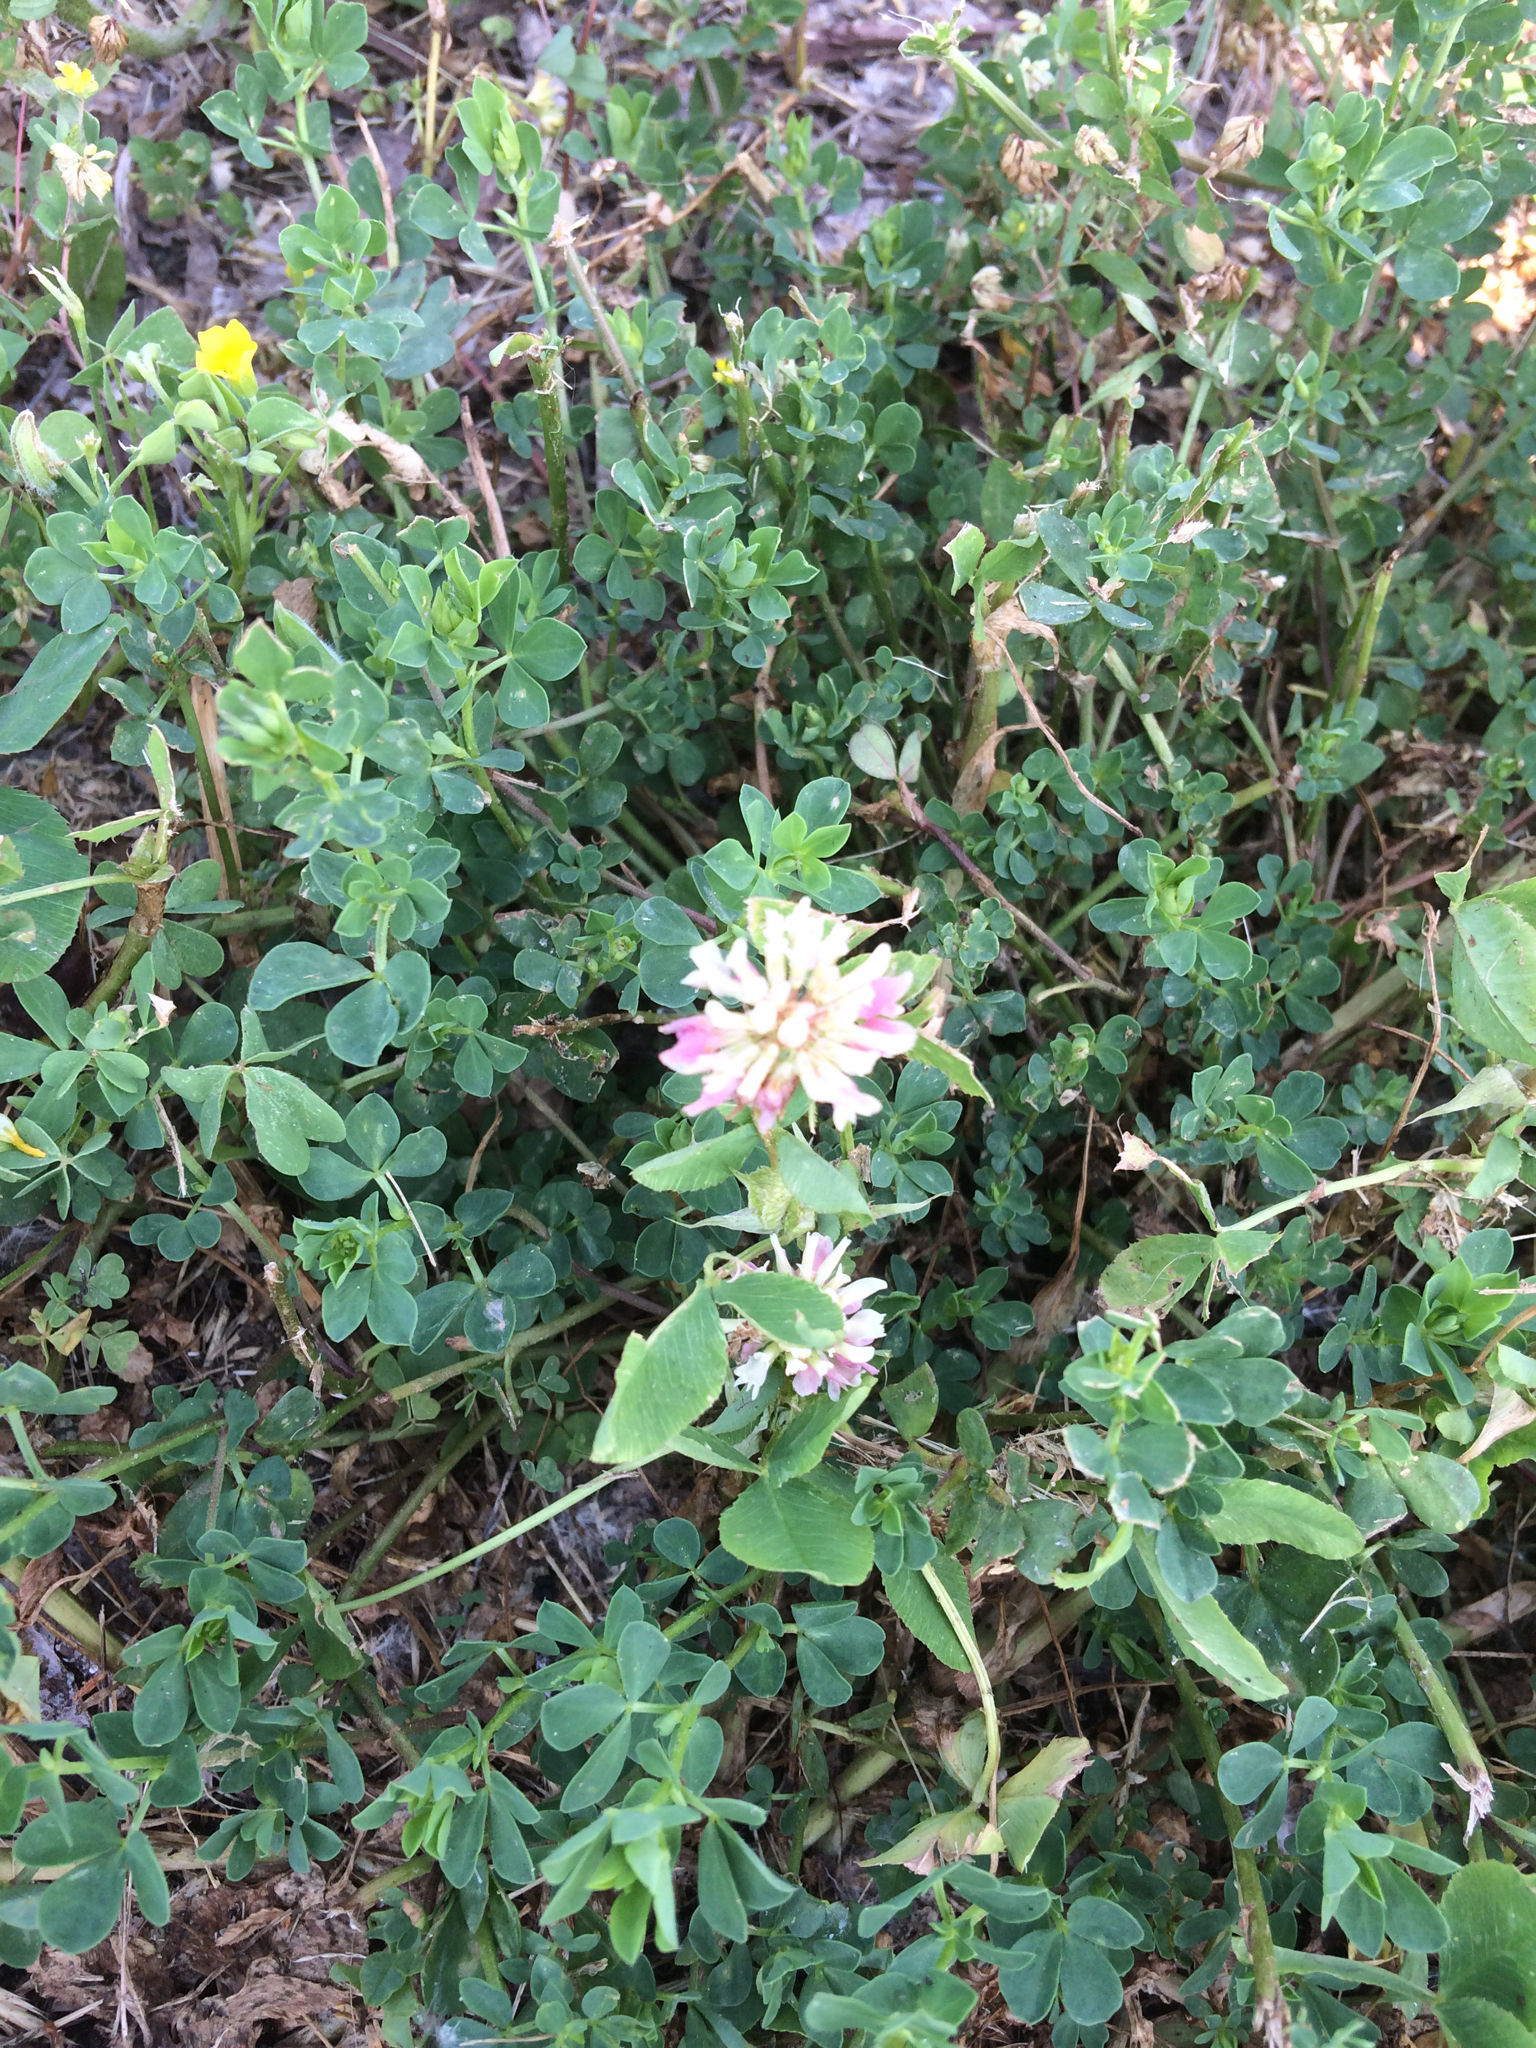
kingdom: Plantae
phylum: Tracheophyta
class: Magnoliopsida
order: Fabales
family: Fabaceae
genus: Trifolium
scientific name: Trifolium hybridum
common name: Alsike clover
